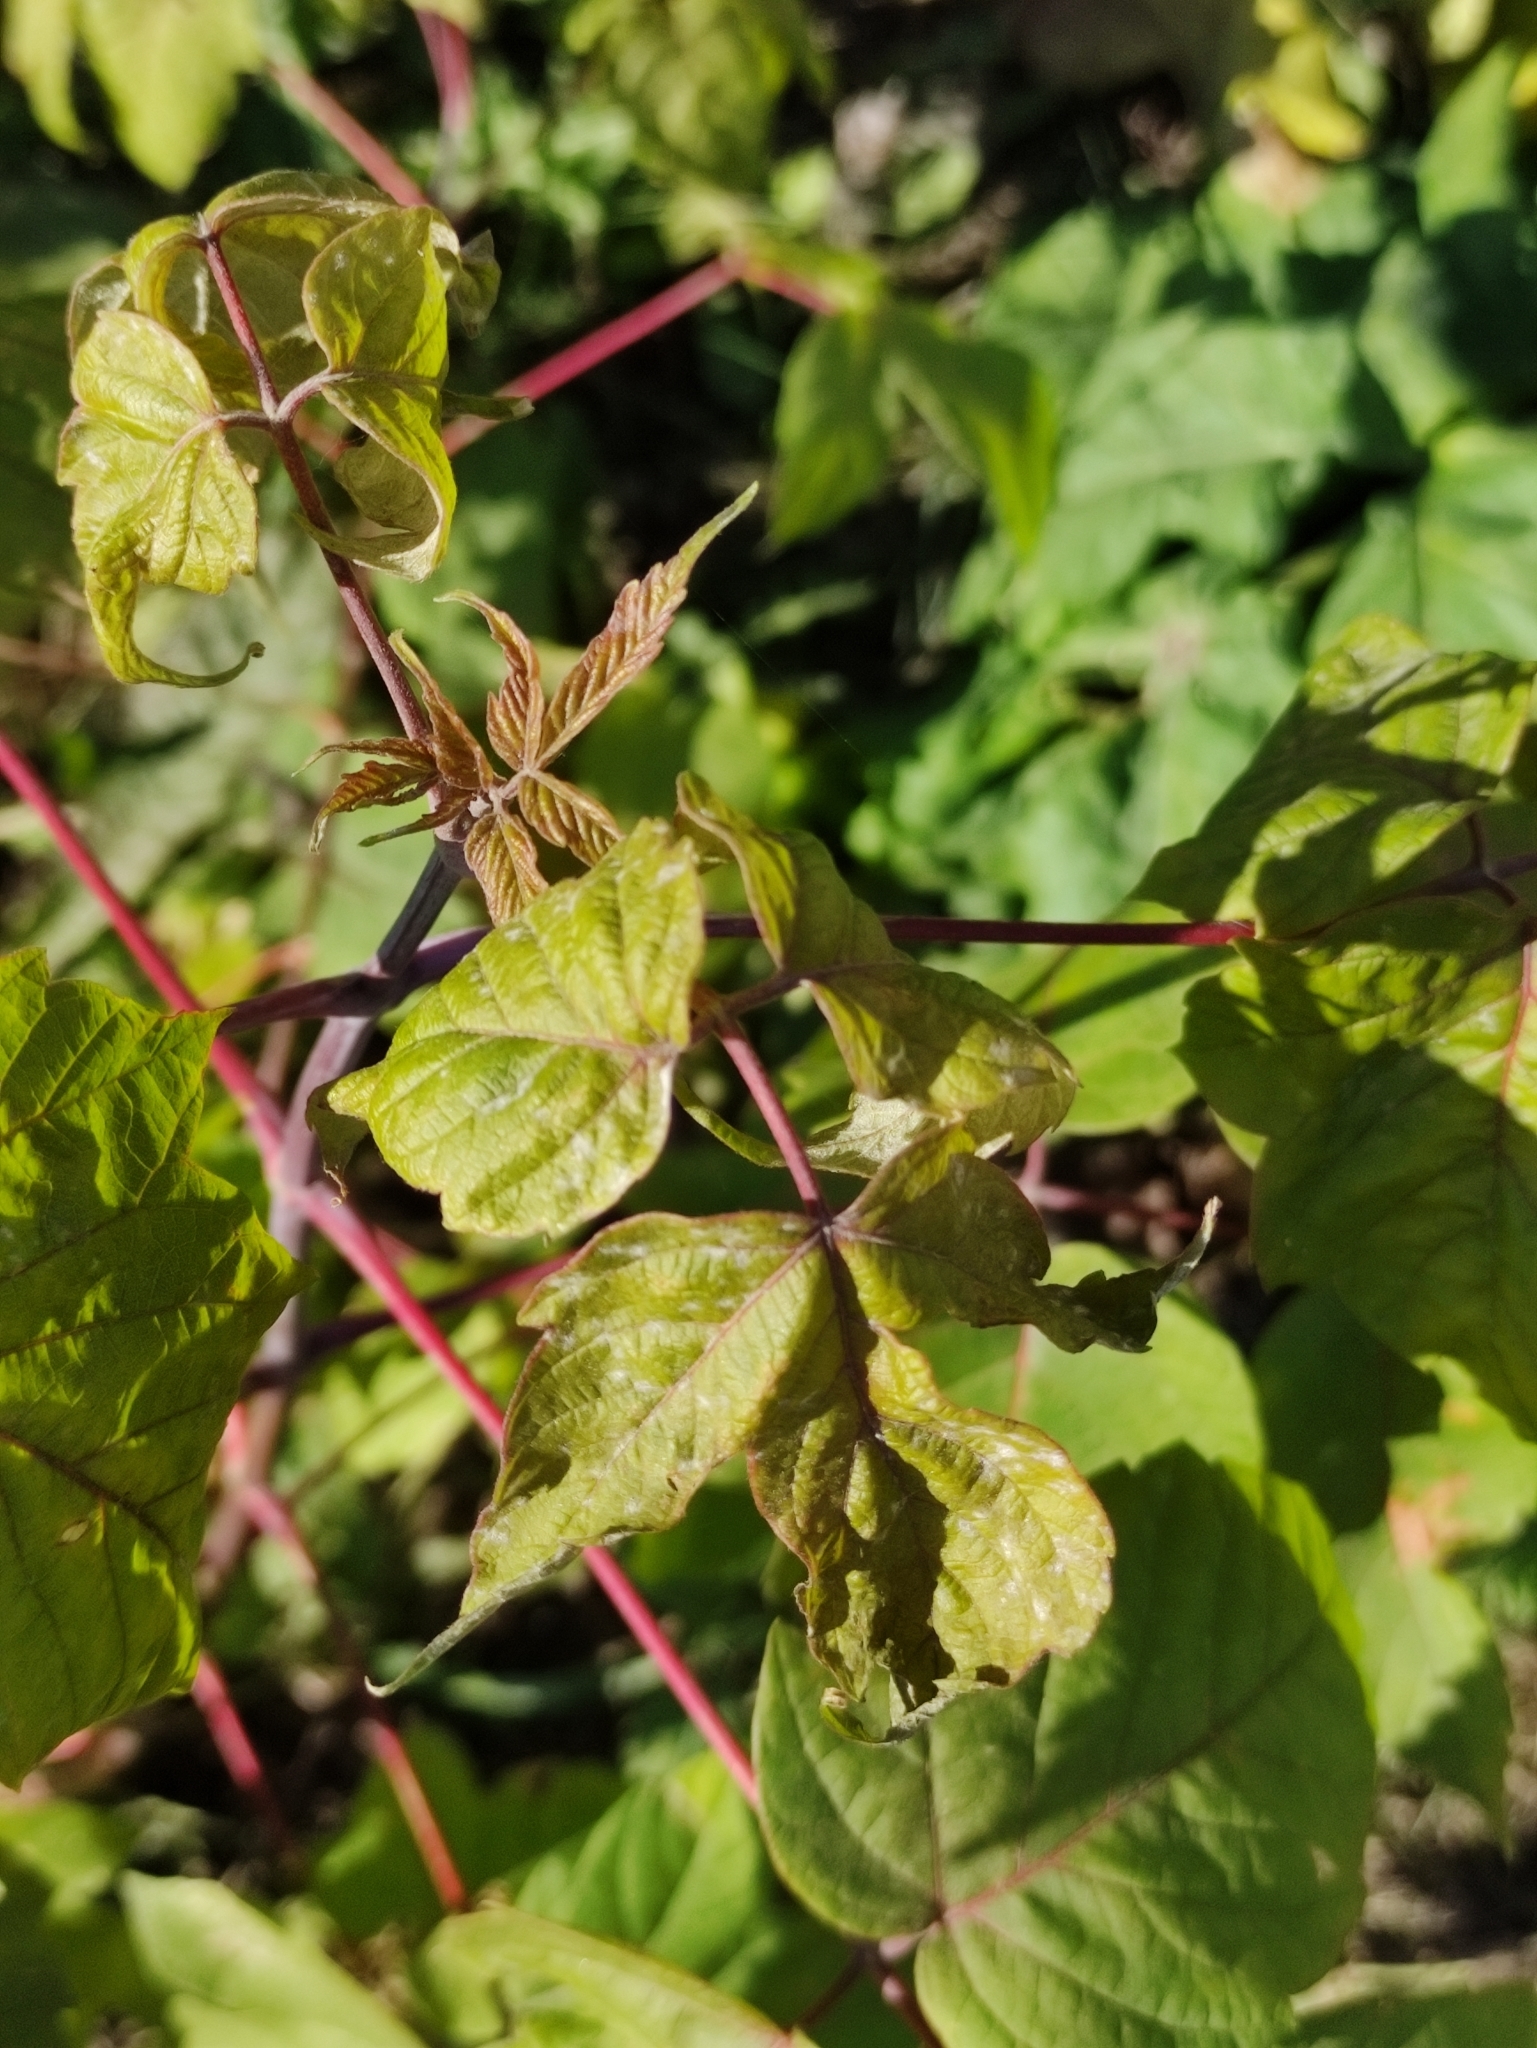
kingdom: Plantae
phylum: Tracheophyta
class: Magnoliopsida
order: Sapindales
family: Sapindaceae
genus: Acer
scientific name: Acer negundo
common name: Ashleaf maple
